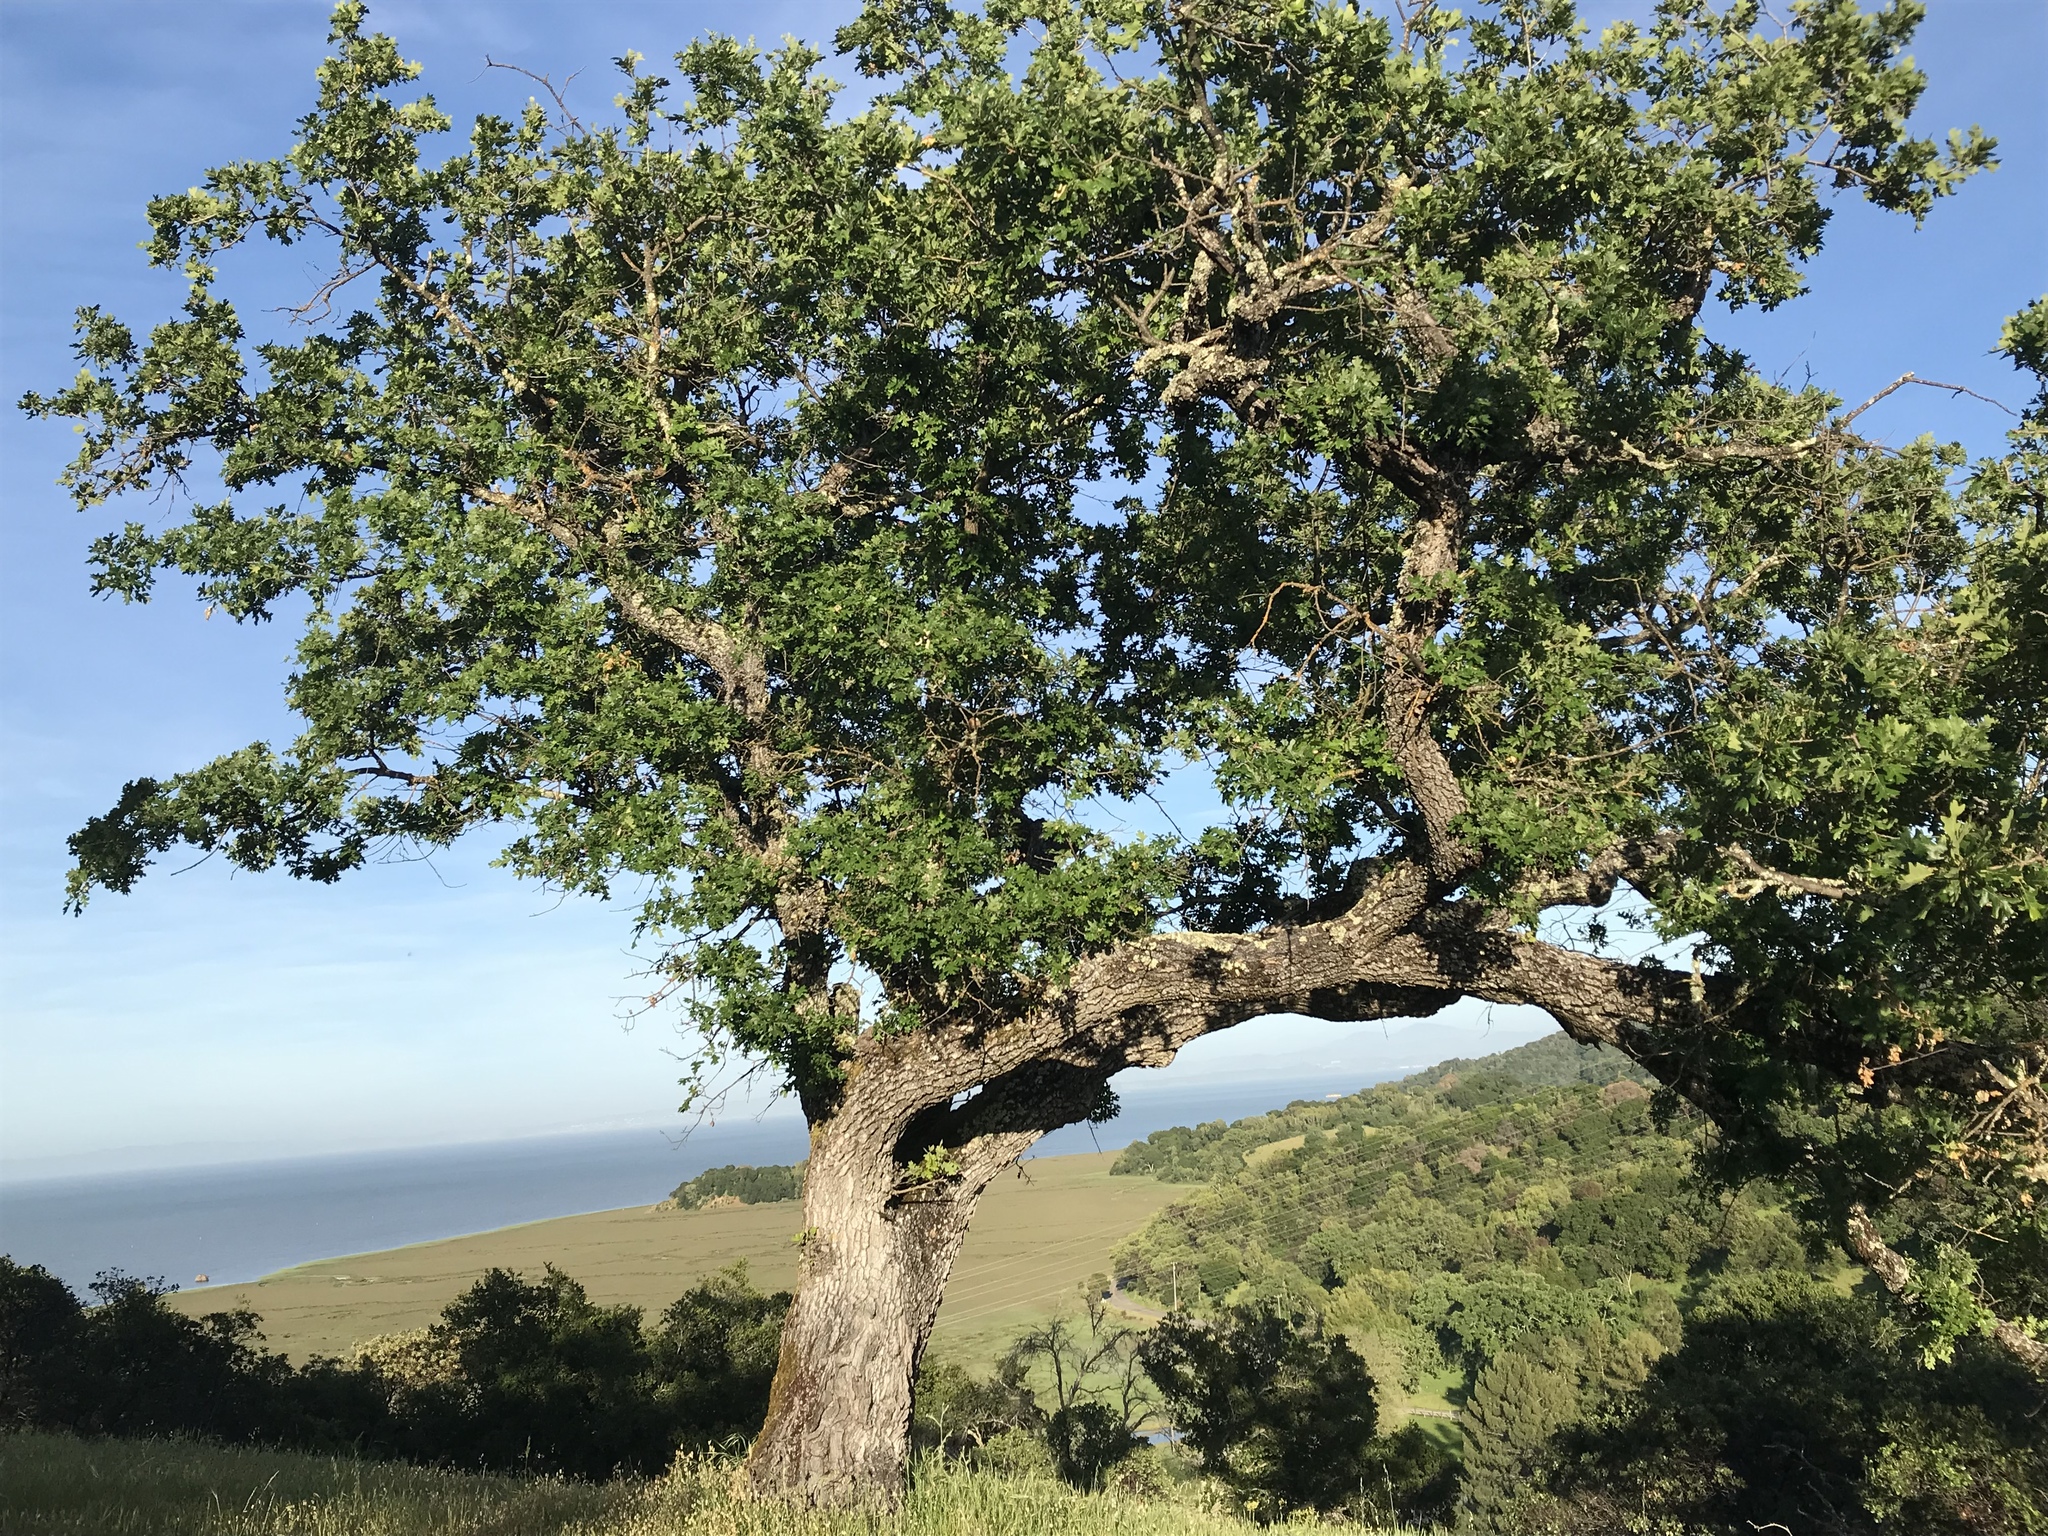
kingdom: Plantae
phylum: Tracheophyta
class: Magnoliopsida
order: Fagales
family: Fagaceae
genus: Quercus
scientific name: Quercus lobata
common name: Valley oak
